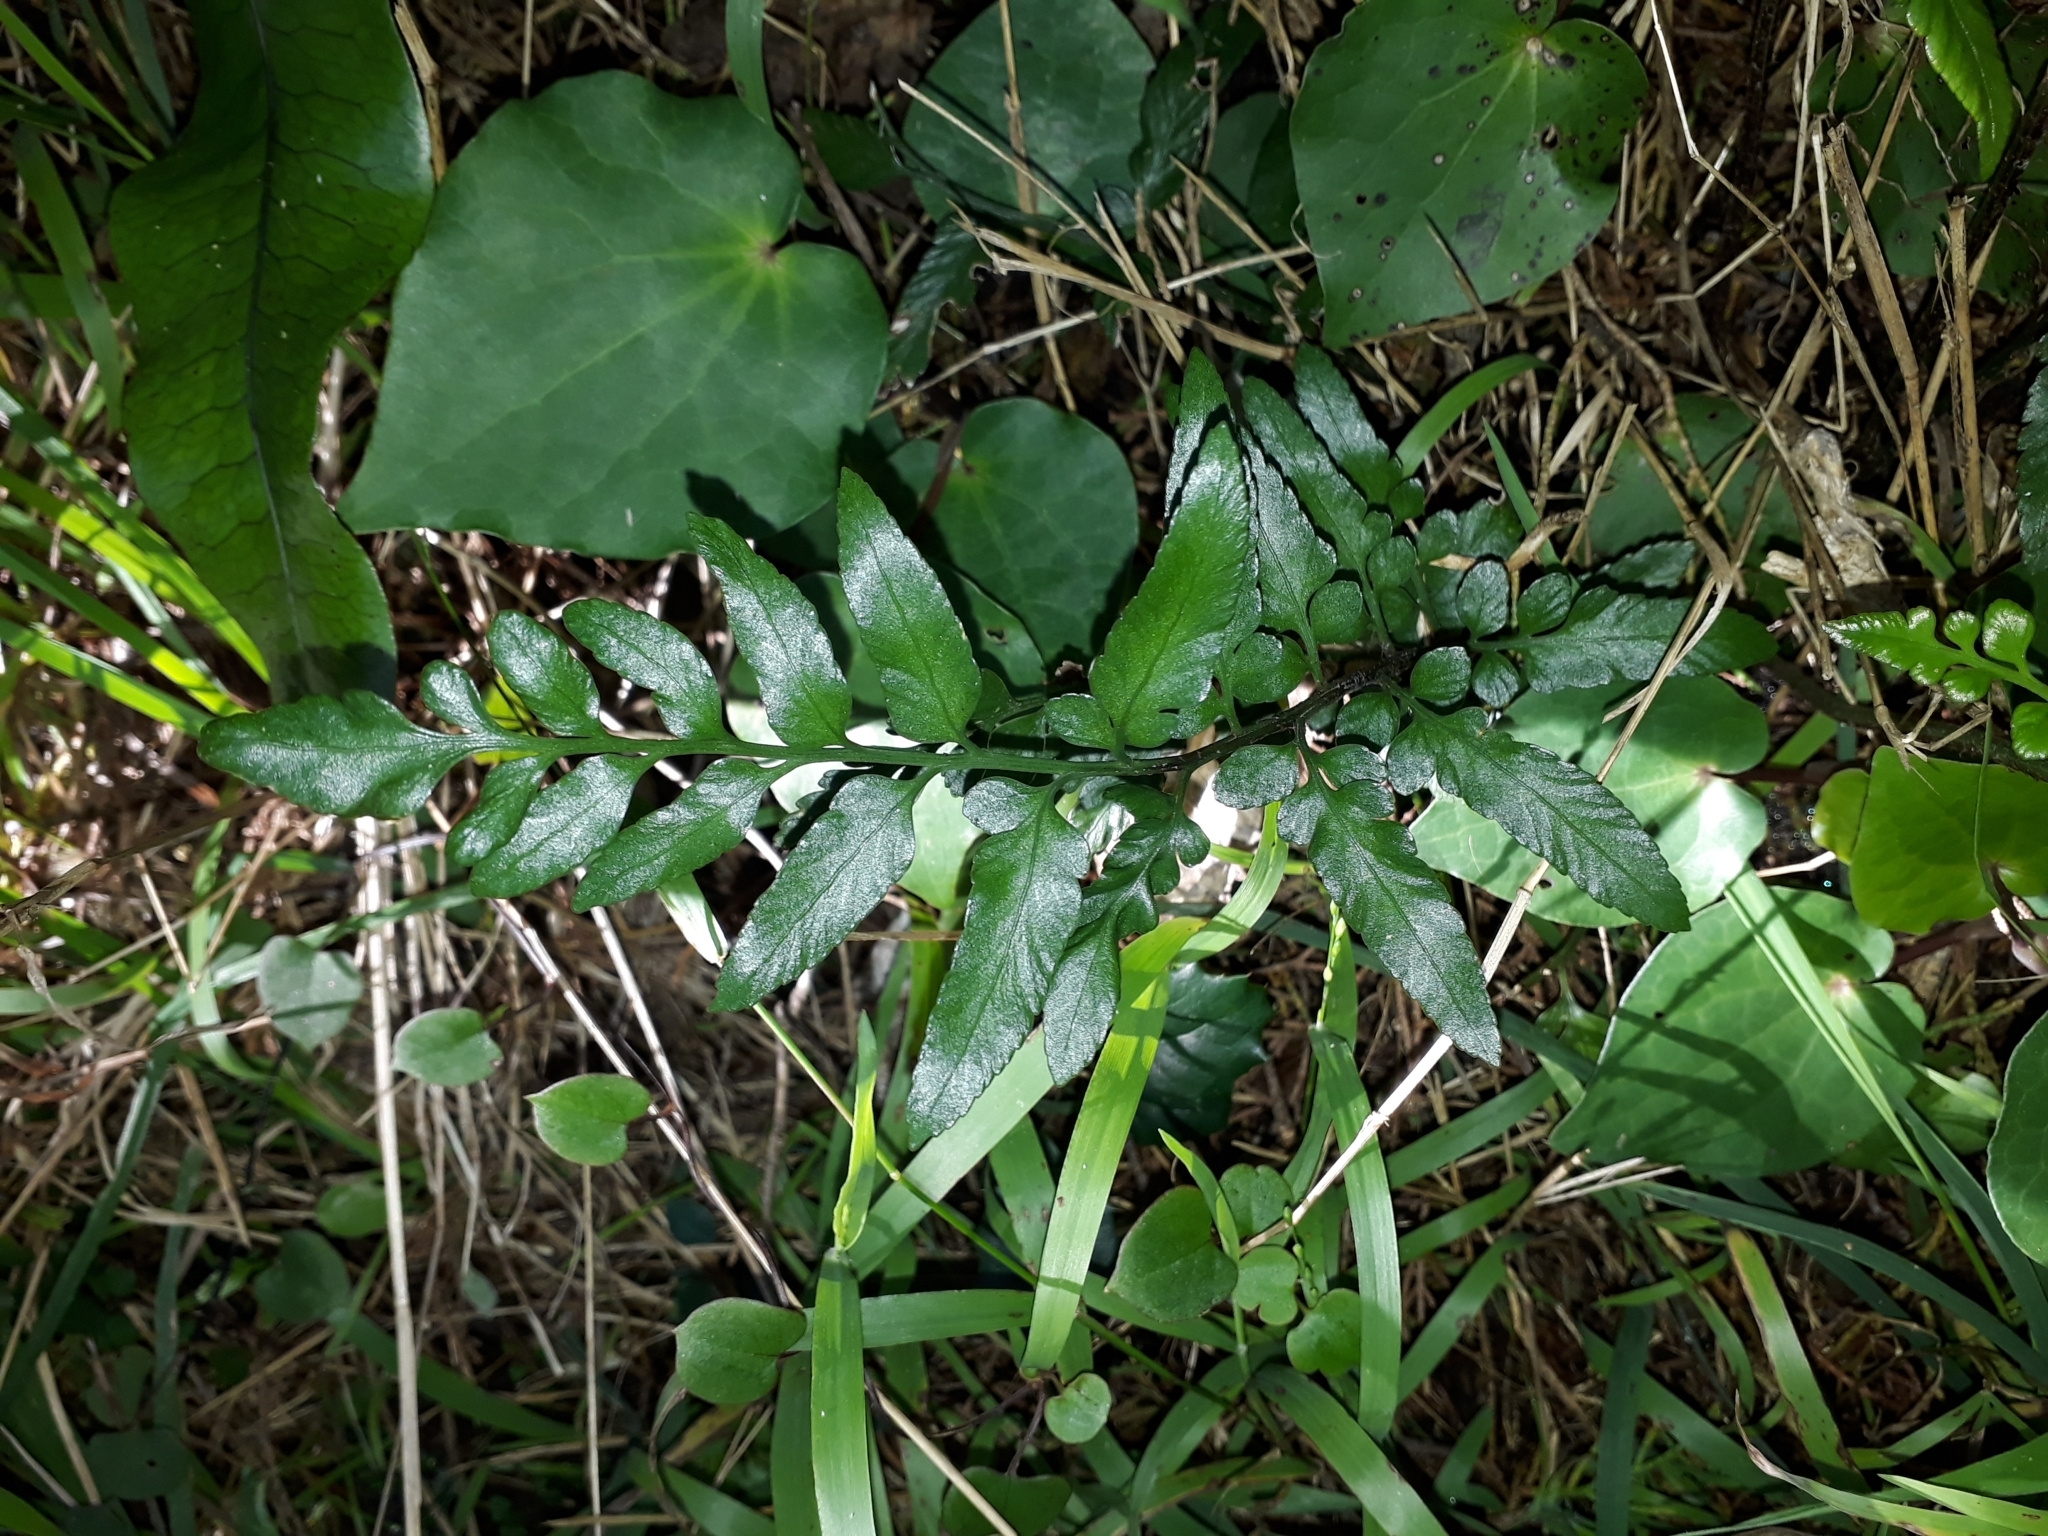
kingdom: Plantae
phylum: Tracheophyta
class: Polypodiopsida
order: Polypodiales
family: Aspleniaceae
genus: Asplenium
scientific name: Asplenium lyallii
